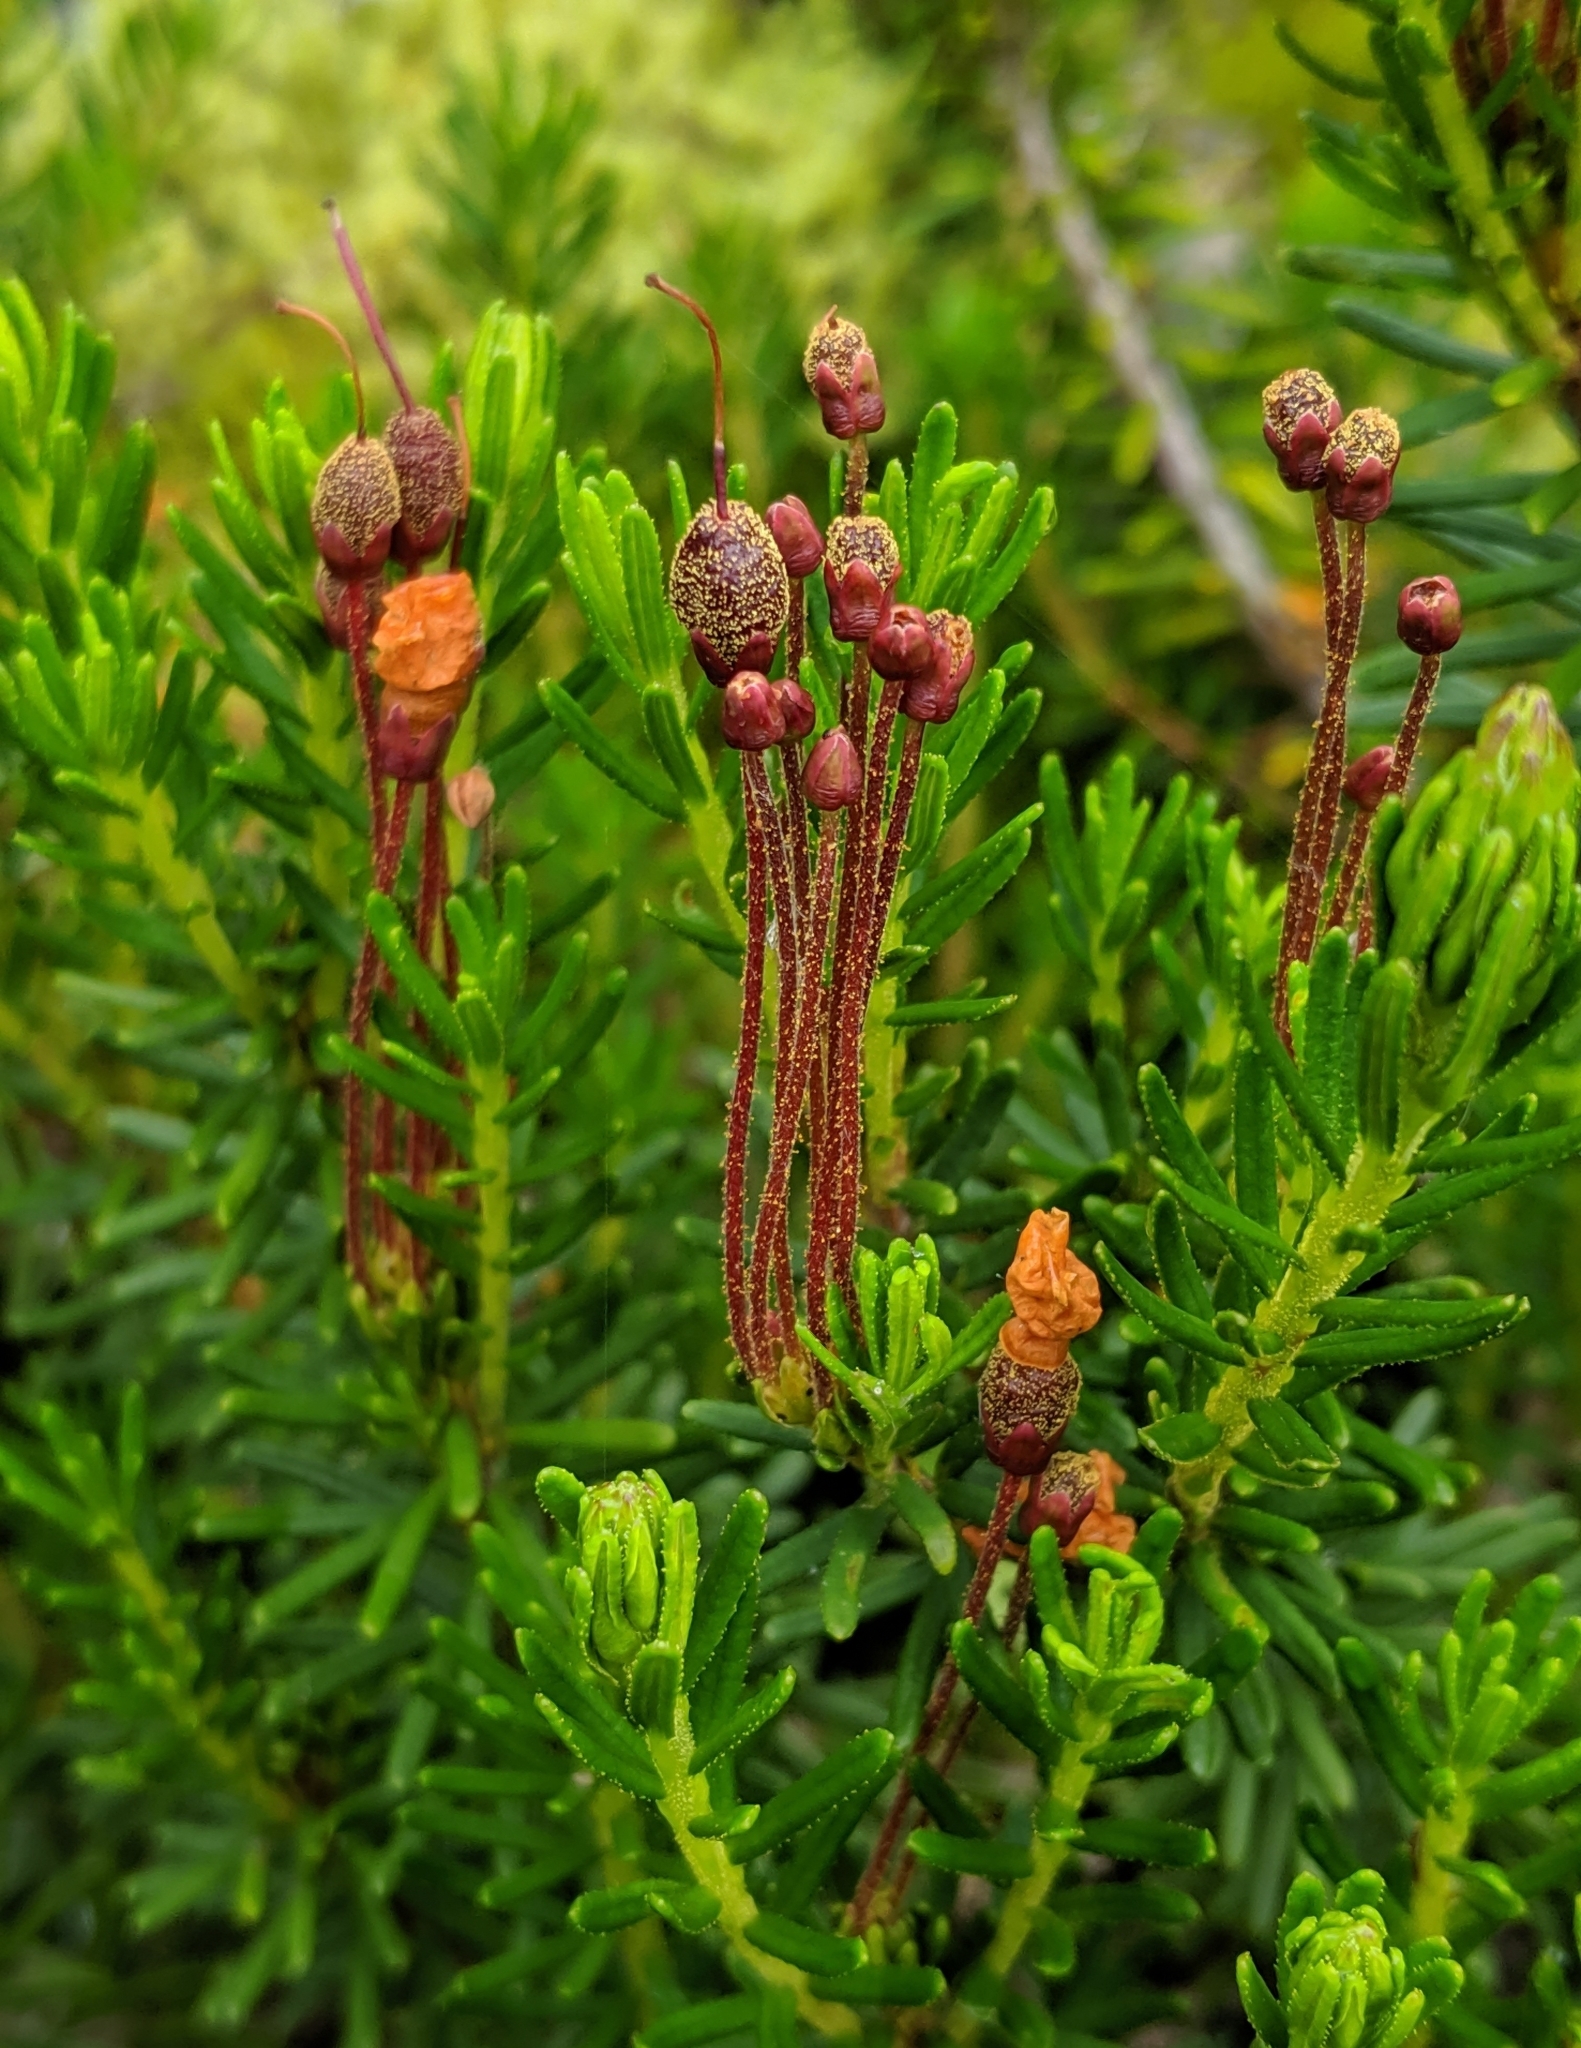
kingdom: Plantae
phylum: Tracheophyta
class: Magnoliopsida
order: Ericales
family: Ericaceae
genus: Phyllodoce
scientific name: Phyllodoce empetriformis
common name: Pink mountain heather
